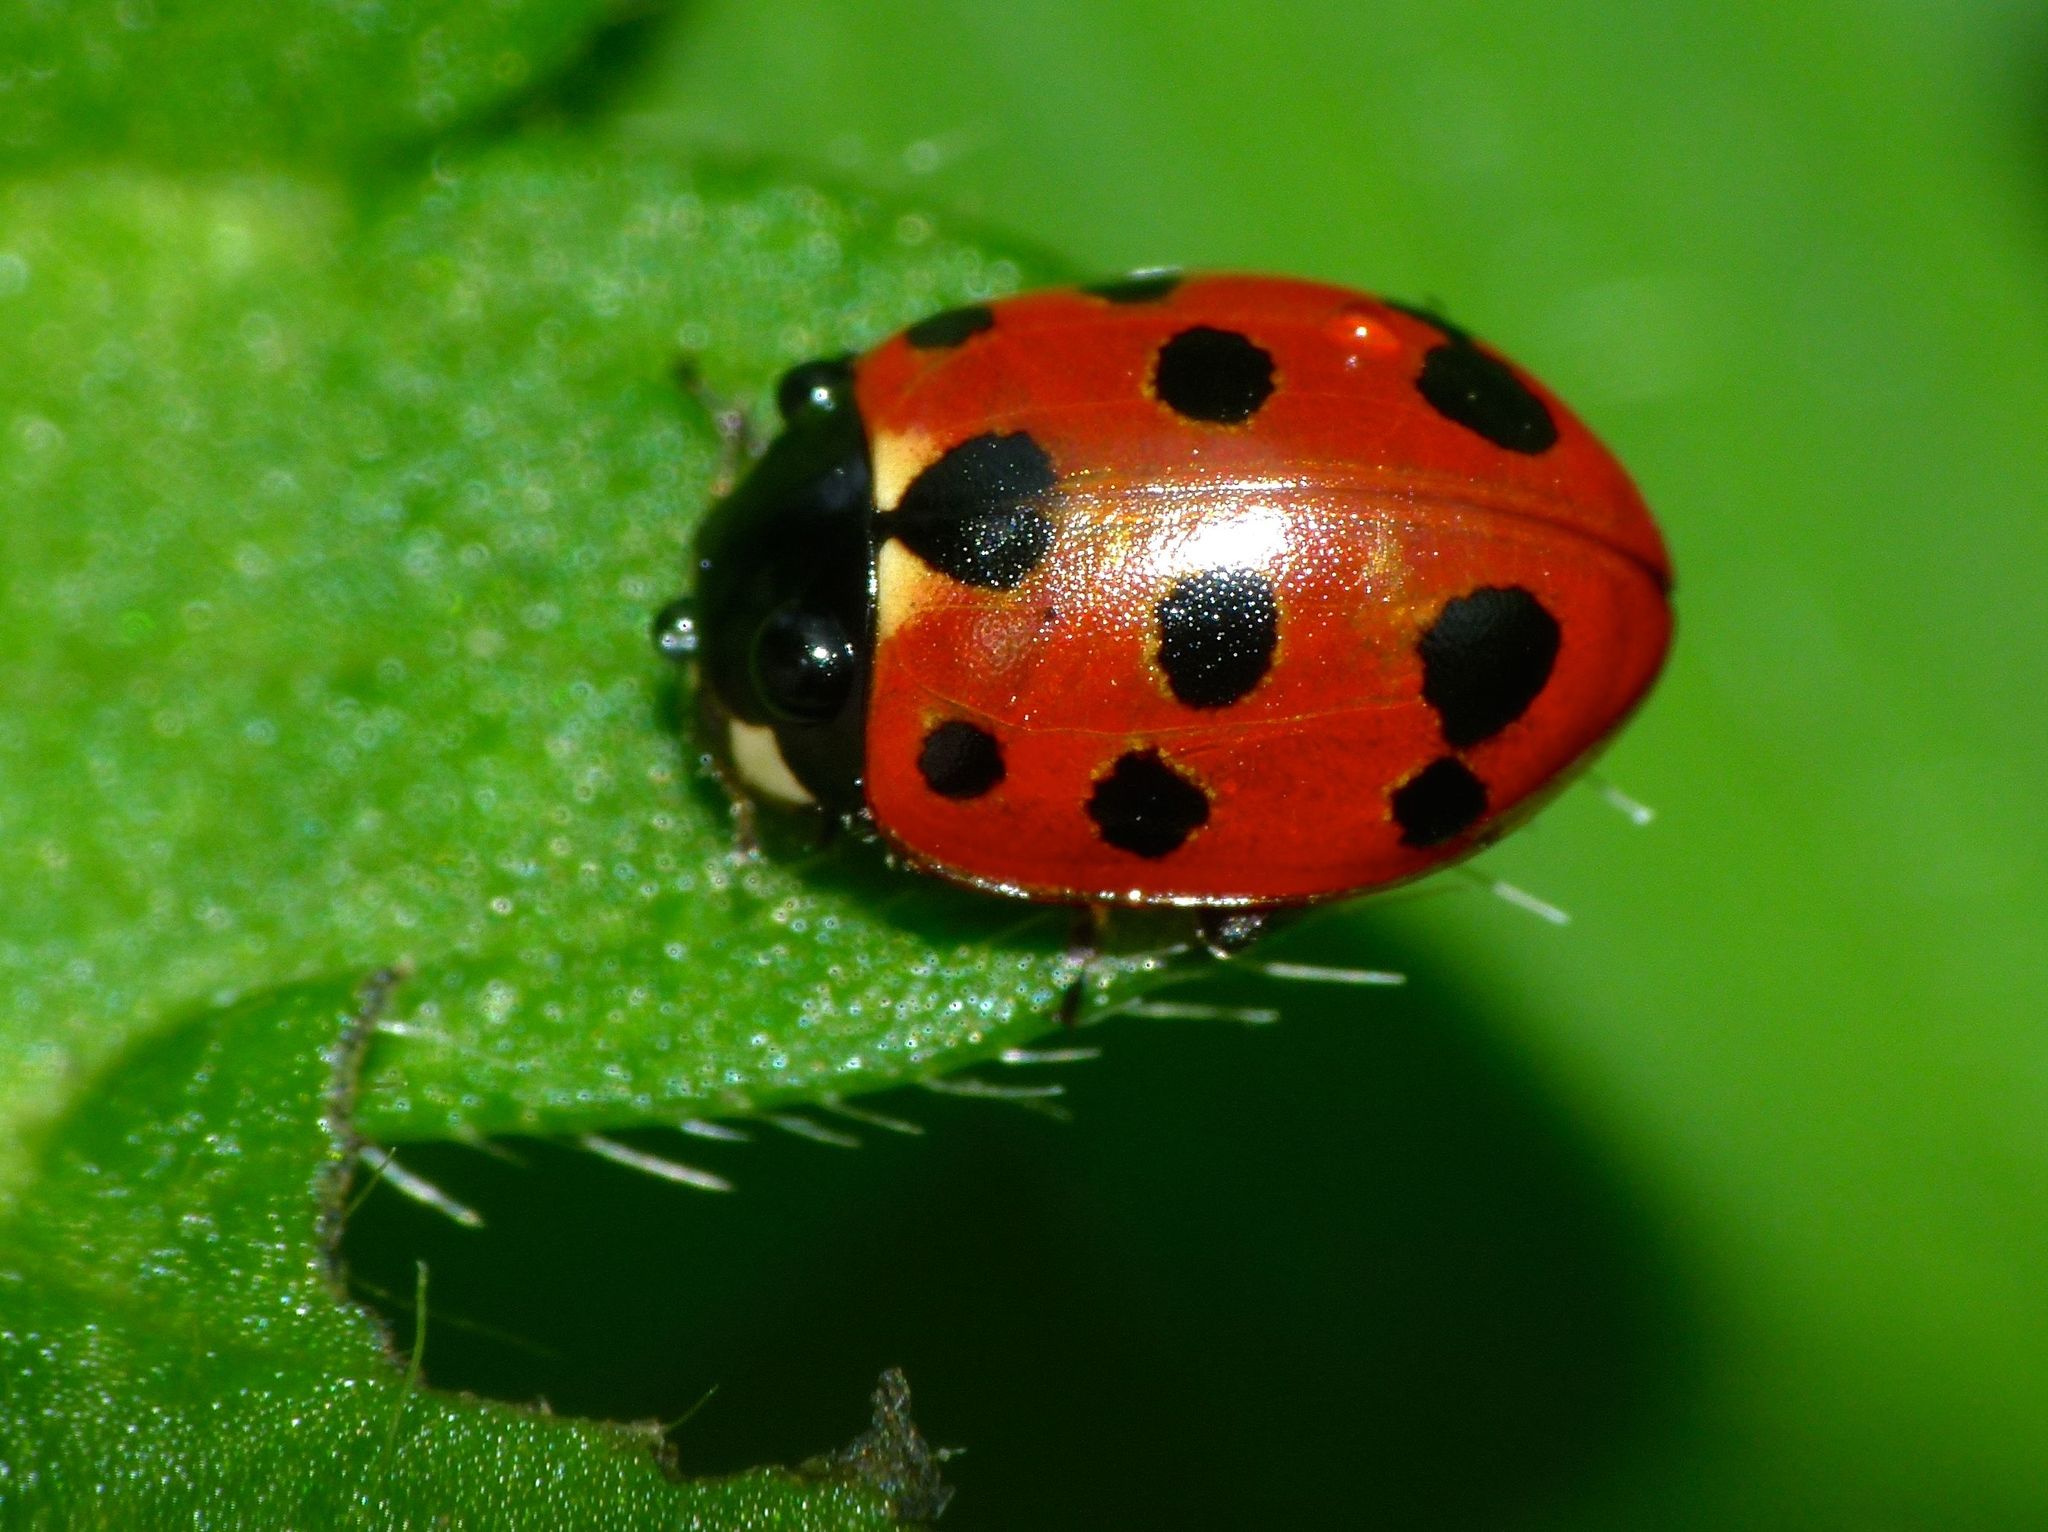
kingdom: Animalia
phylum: Arthropoda
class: Insecta
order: Coleoptera
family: Coccinellidae
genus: Coccinella
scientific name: Coccinella undecimpunctata
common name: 11-spot ladybird
